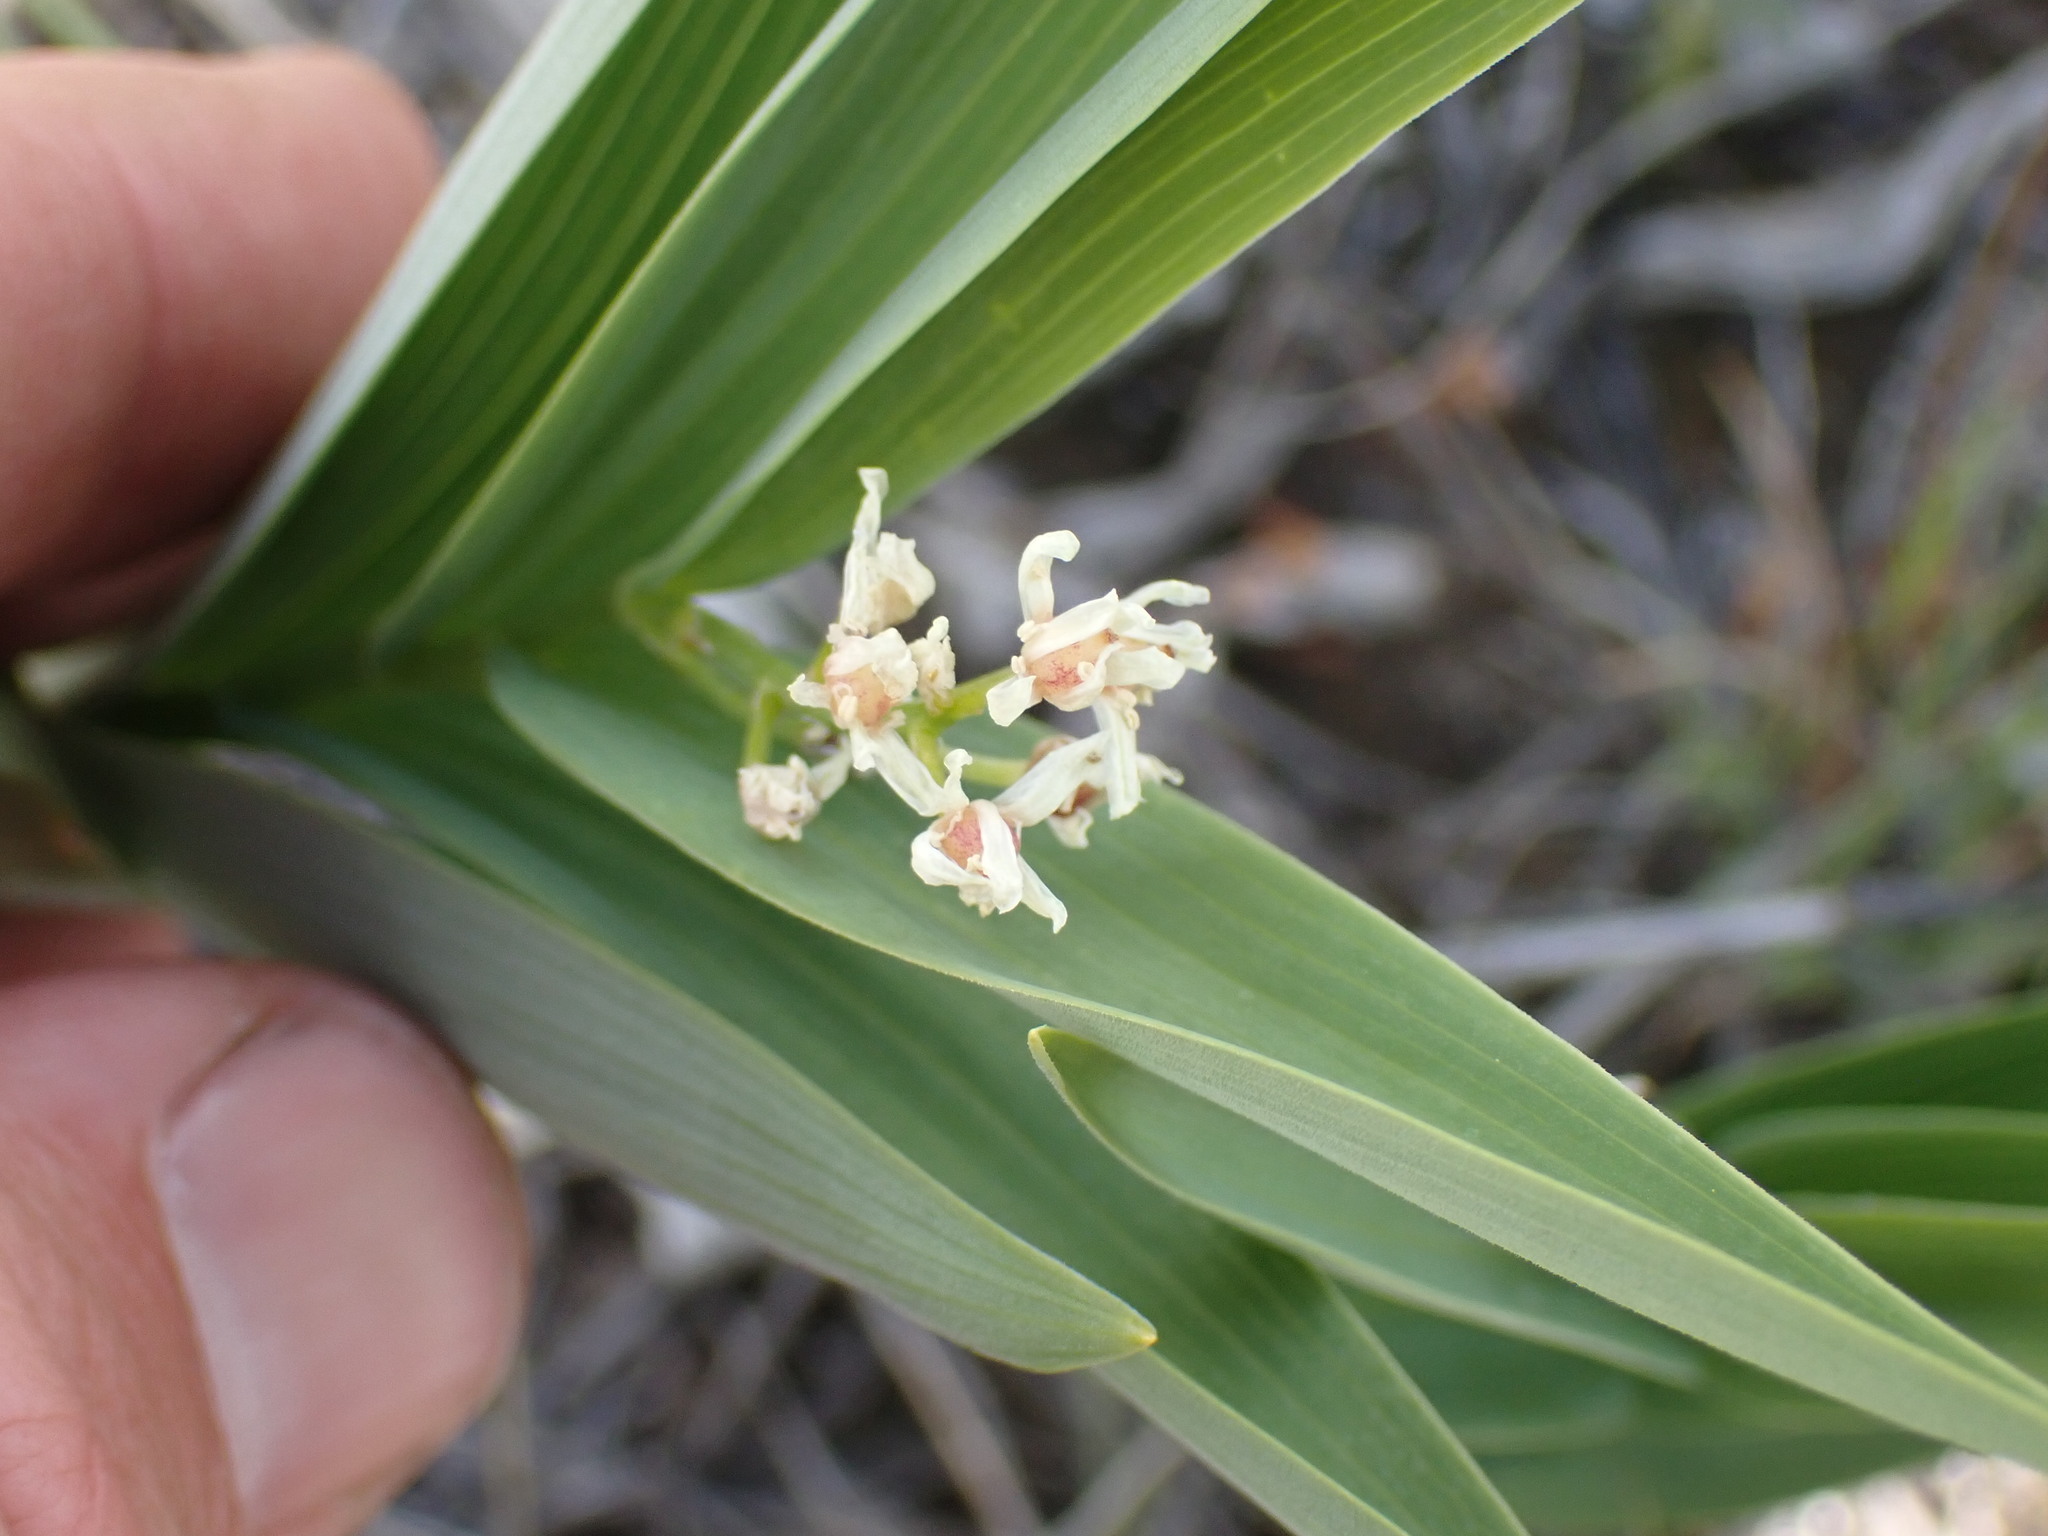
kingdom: Plantae
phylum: Tracheophyta
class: Liliopsida
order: Asparagales
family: Asparagaceae
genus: Maianthemum
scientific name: Maianthemum stellatum
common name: Little false solomon's seal
